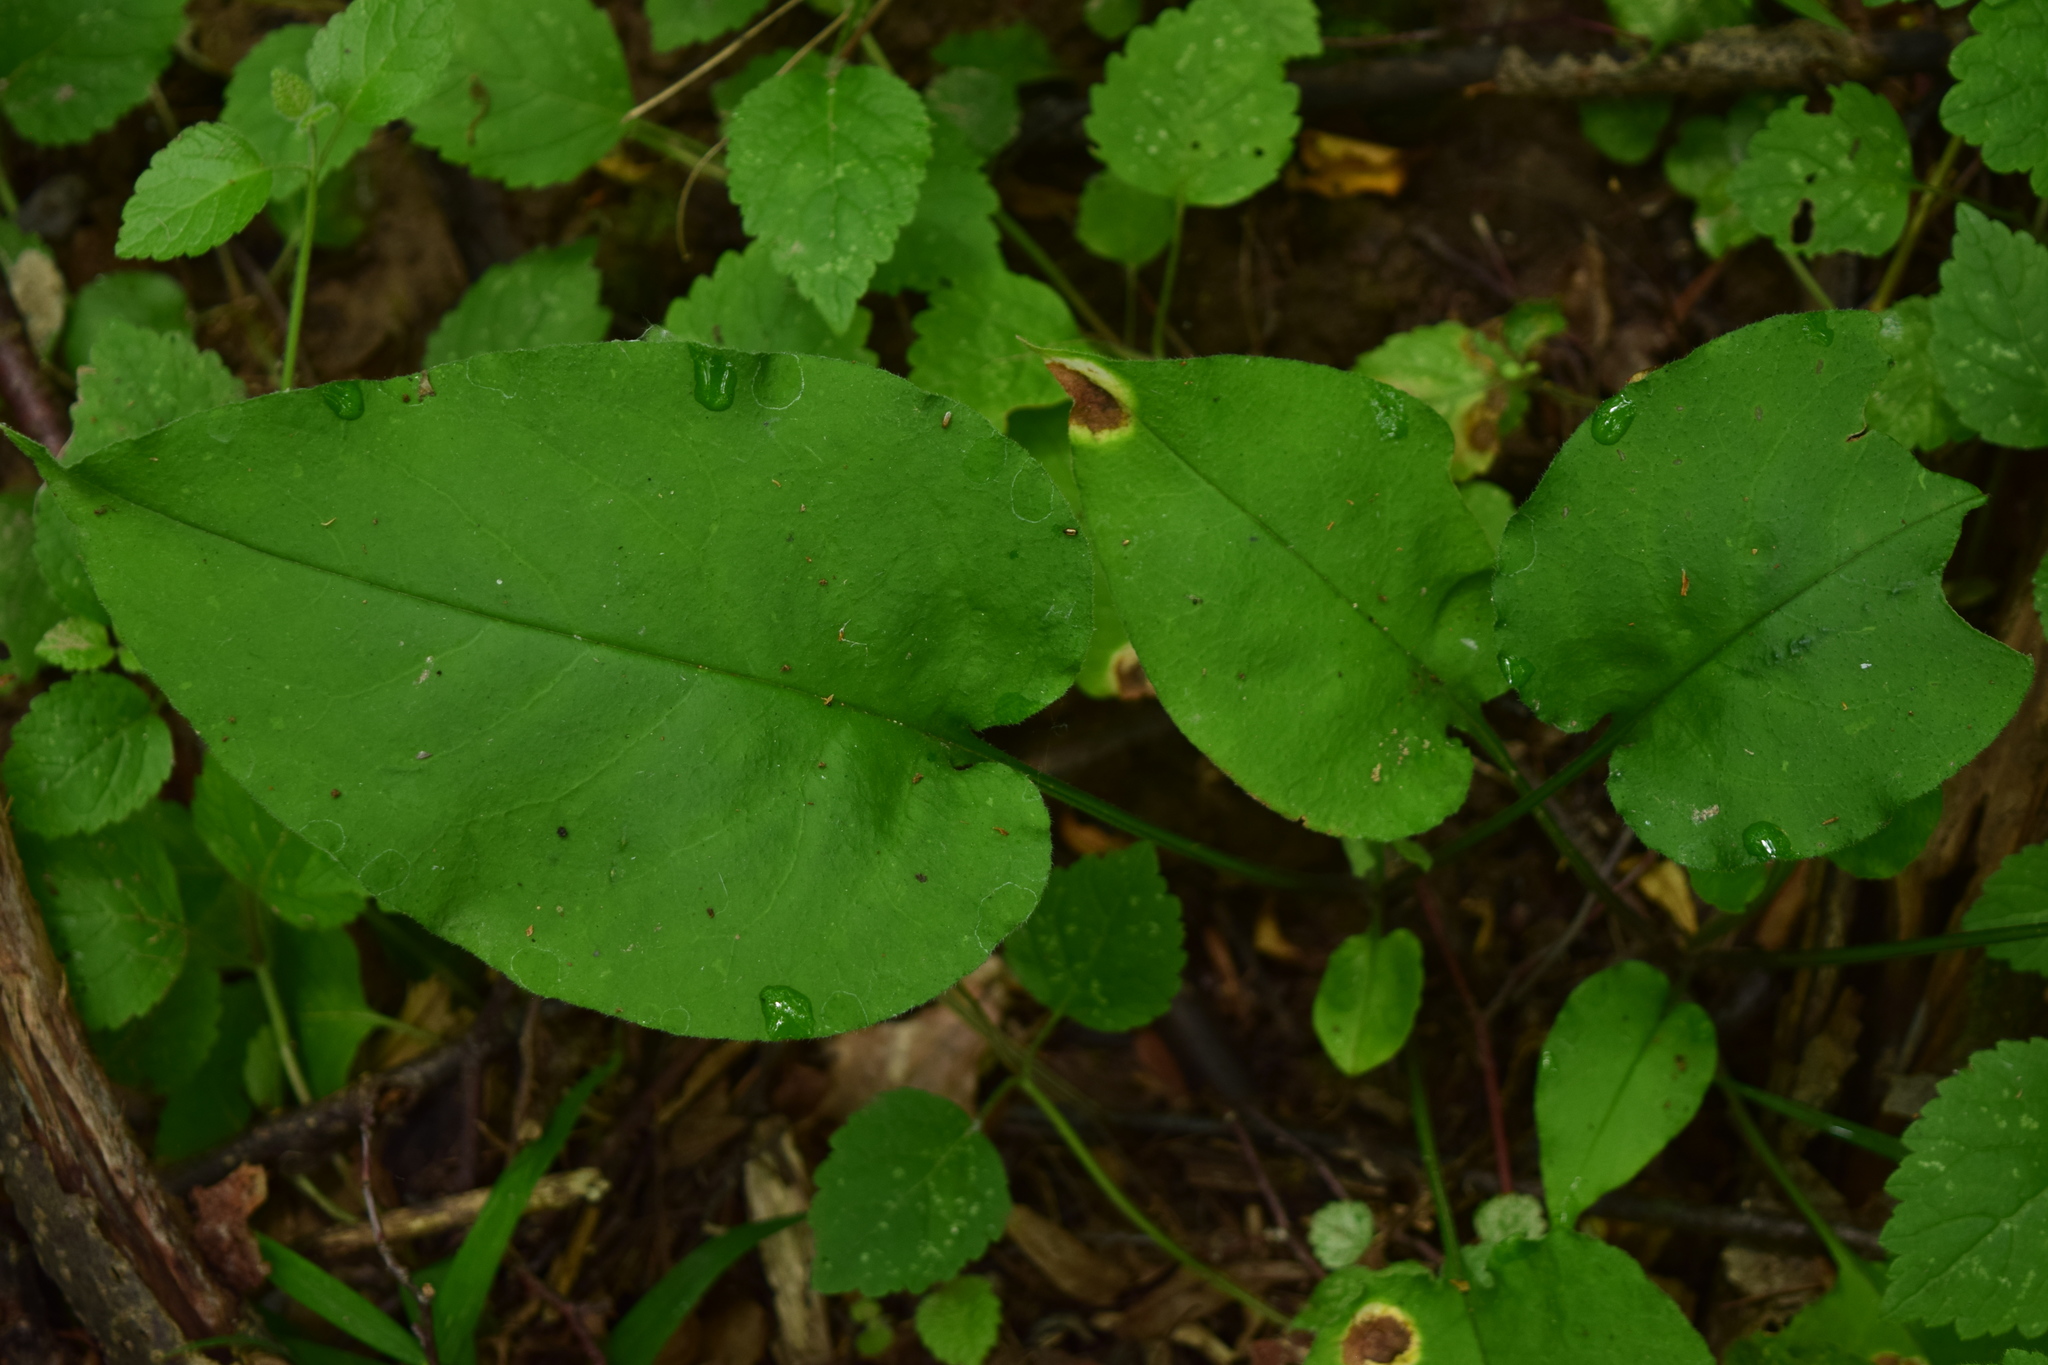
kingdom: Plantae
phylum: Tracheophyta
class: Magnoliopsida
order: Boraginales
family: Boraginaceae
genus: Pulmonaria
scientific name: Pulmonaria obscura
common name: Suffolk lungwort
